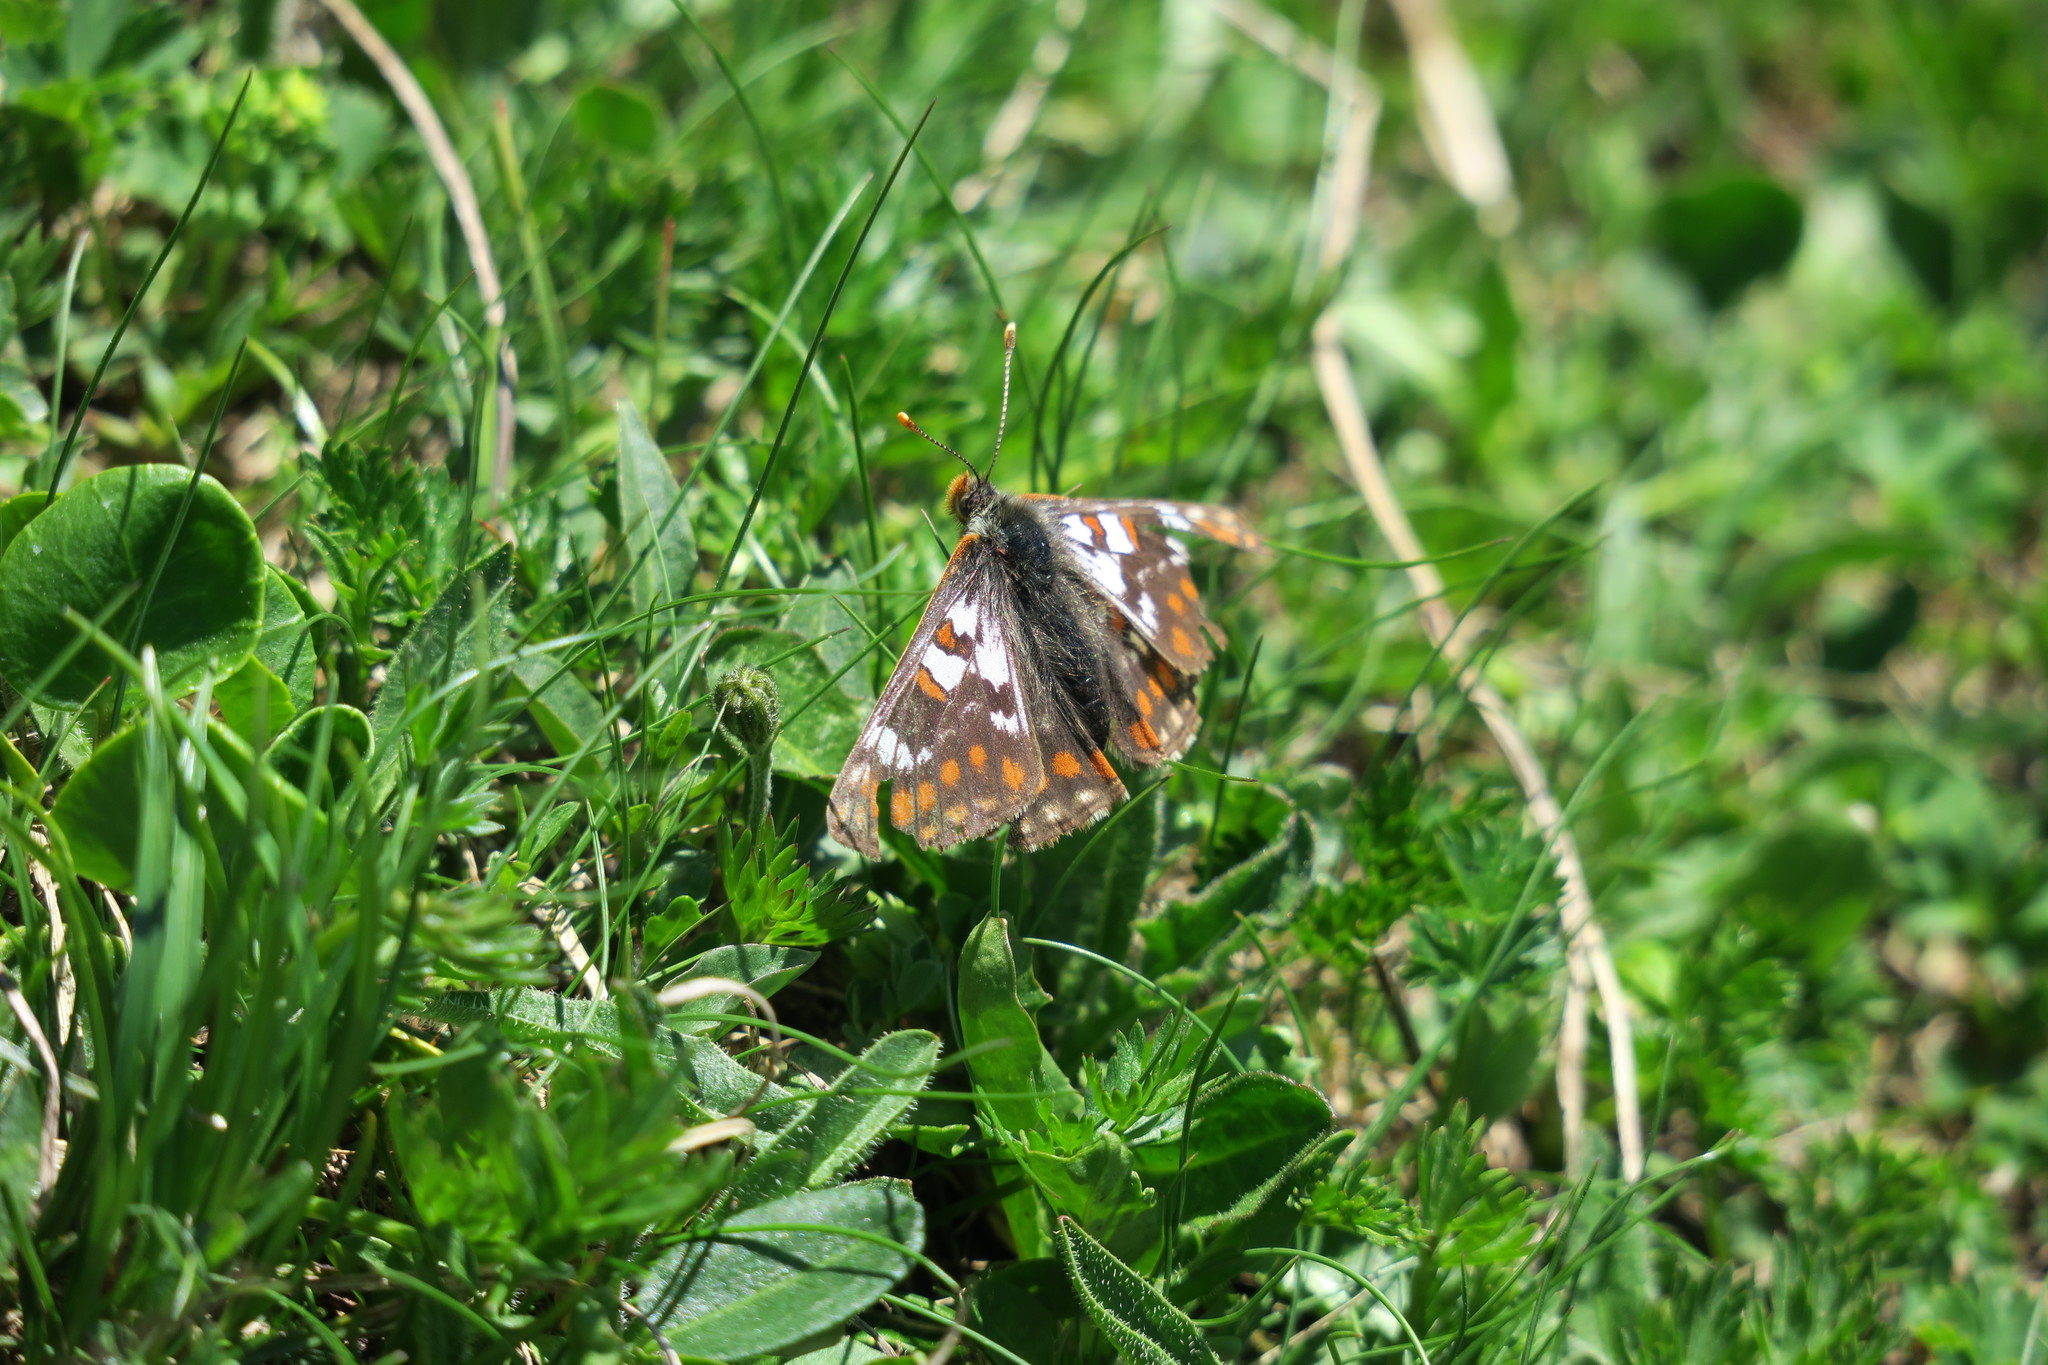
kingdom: Animalia
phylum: Arthropoda
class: Insecta
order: Lepidoptera
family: Nymphalidae
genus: Hypodryas
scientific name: Hypodryas cynthia
